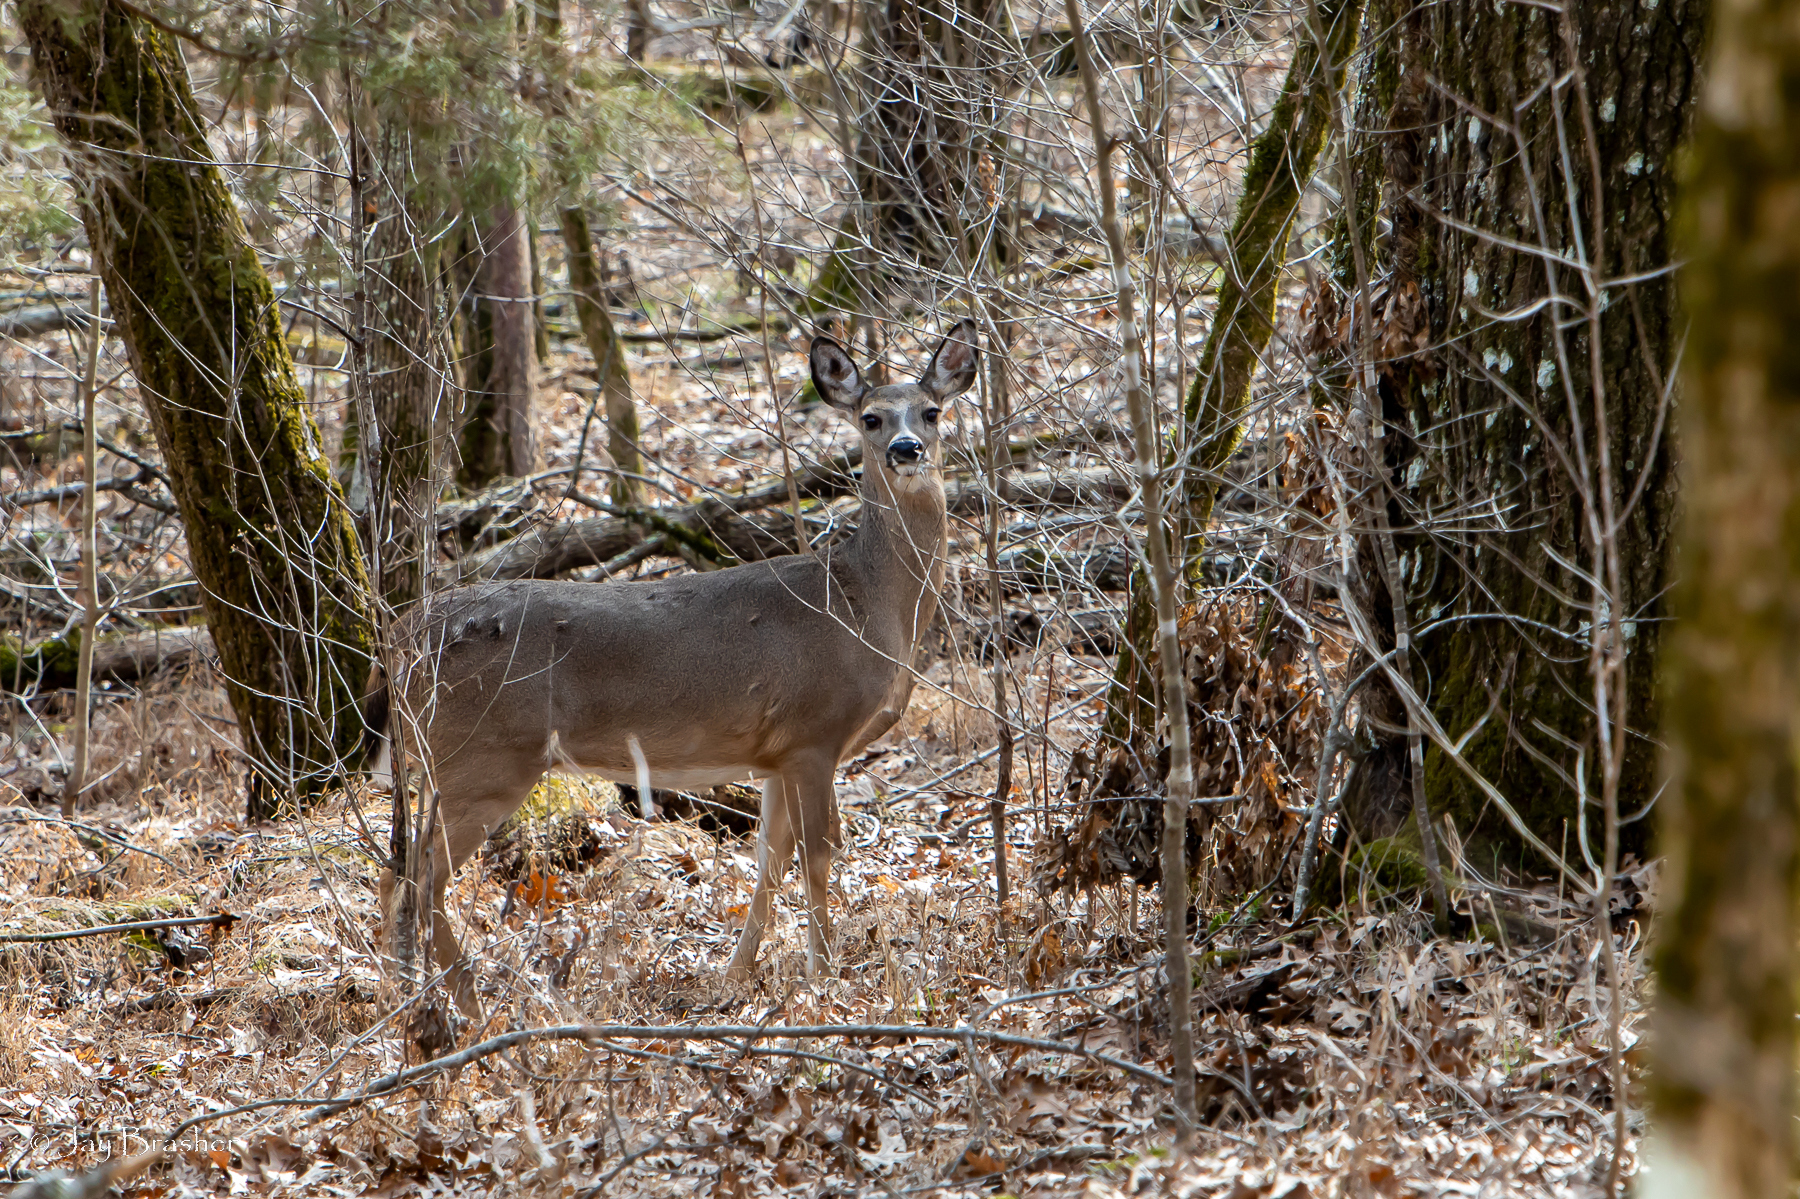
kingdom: Animalia
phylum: Chordata
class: Mammalia
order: Artiodactyla
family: Cervidae
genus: Odocoileus
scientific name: Odocoileus virginianus
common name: White-tailed deer
